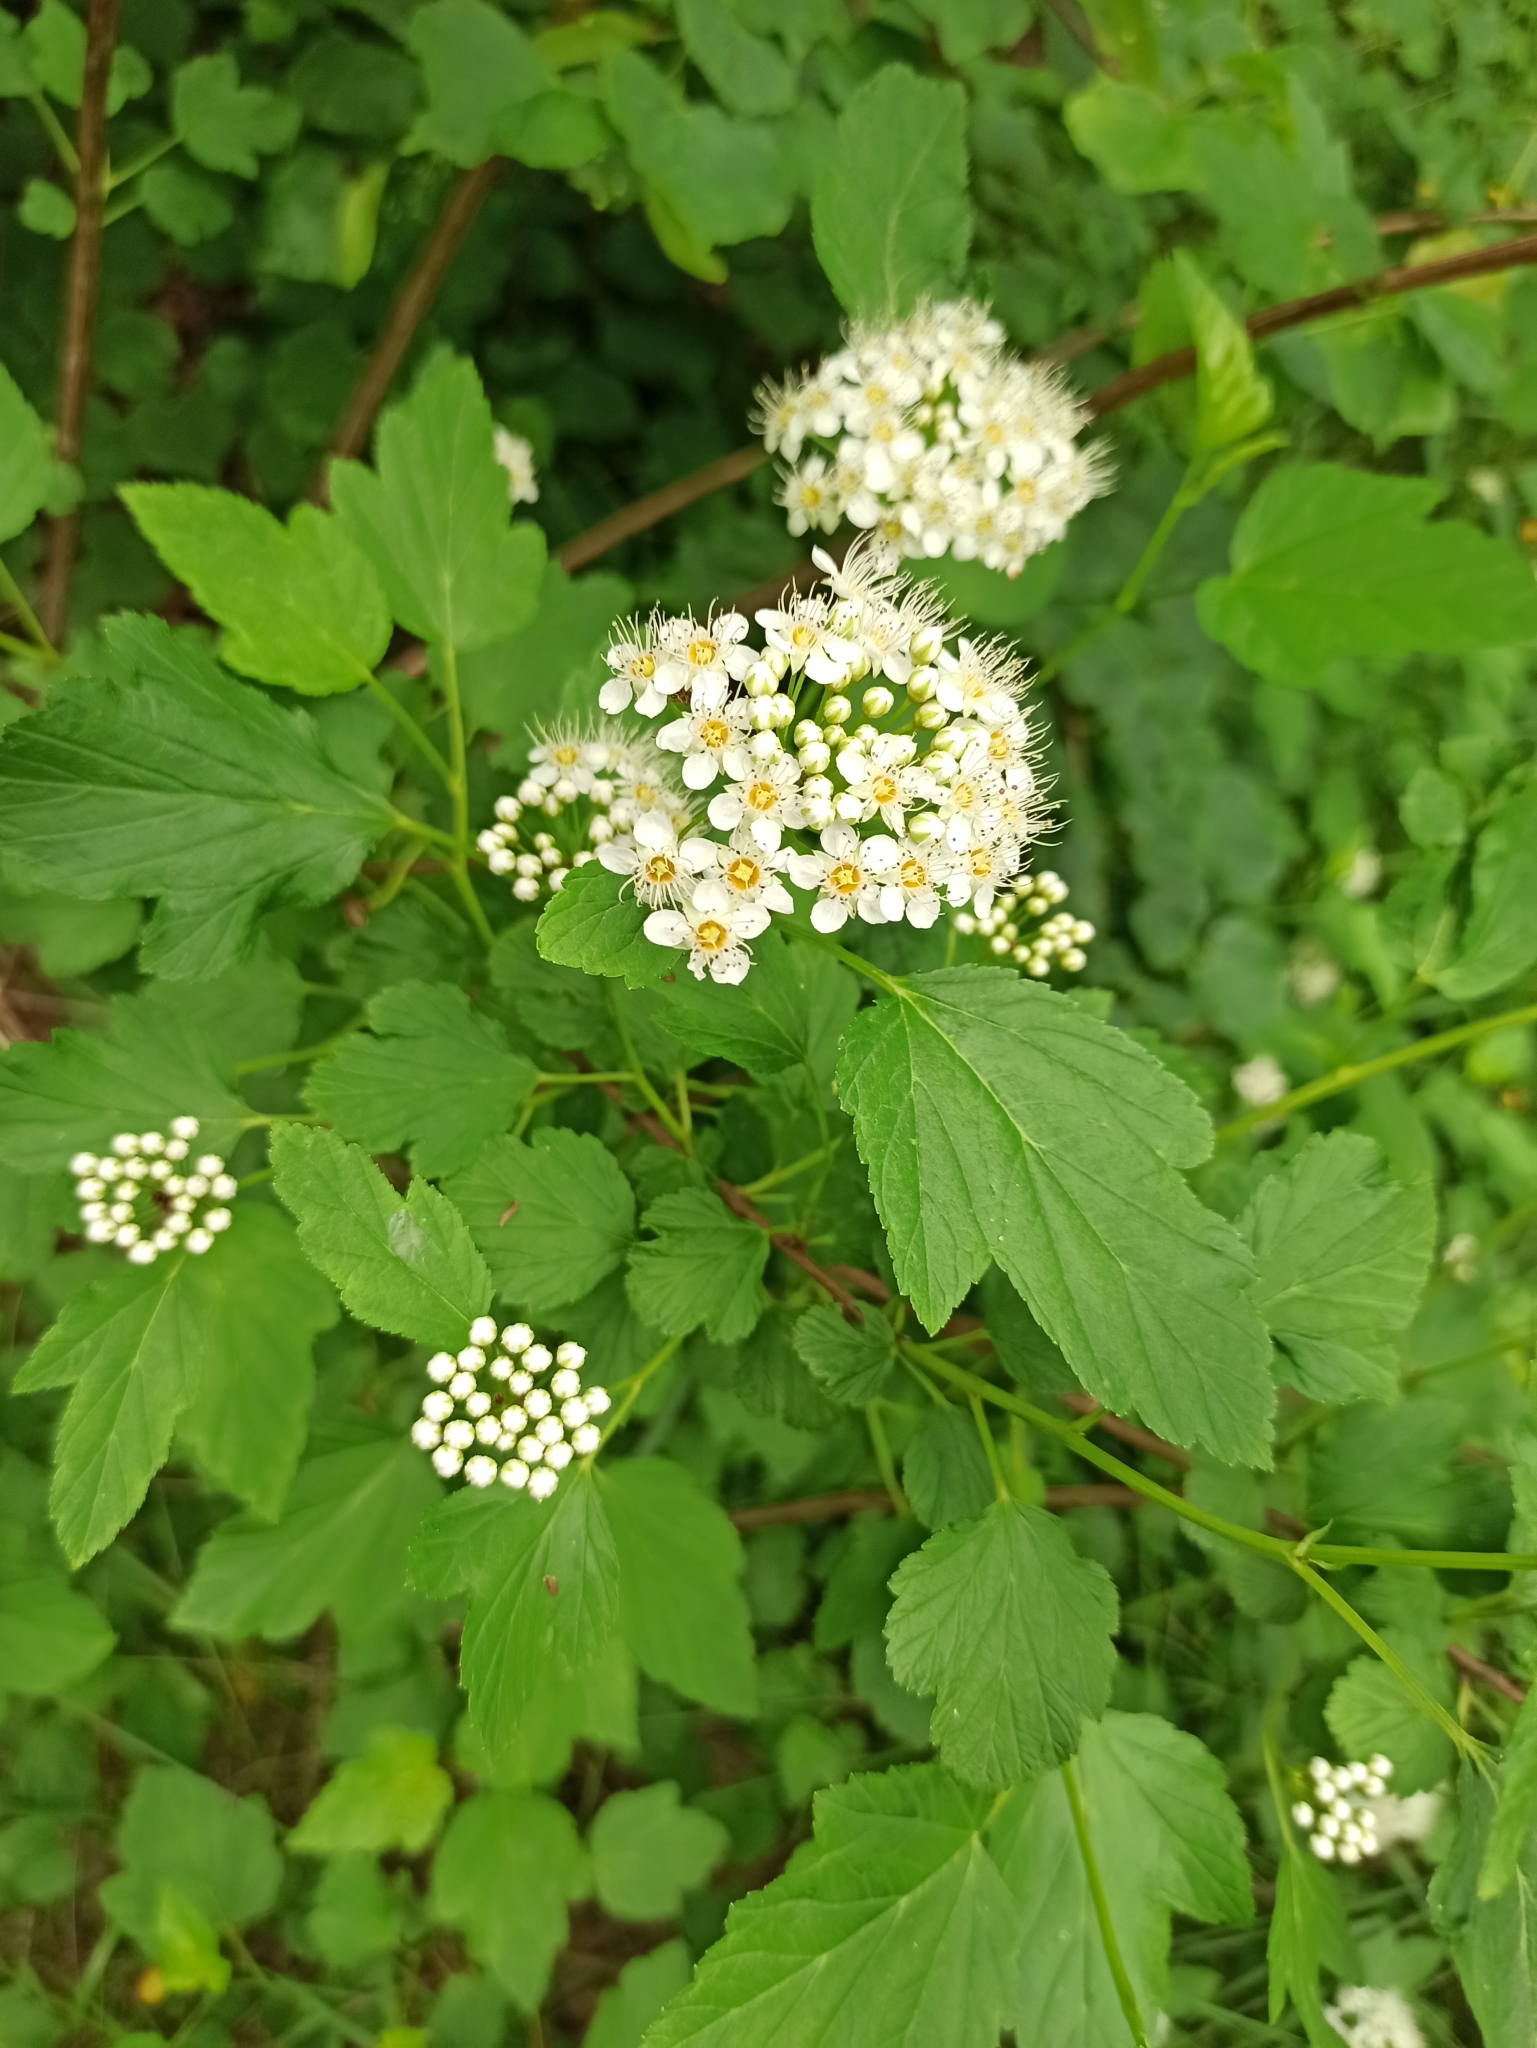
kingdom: Plantae
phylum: Tracheophyta
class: Magnoliopsida
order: Rosales
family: Rosaceae
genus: Physocarpus
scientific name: Physocarpus opulifolius
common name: Ninebark
